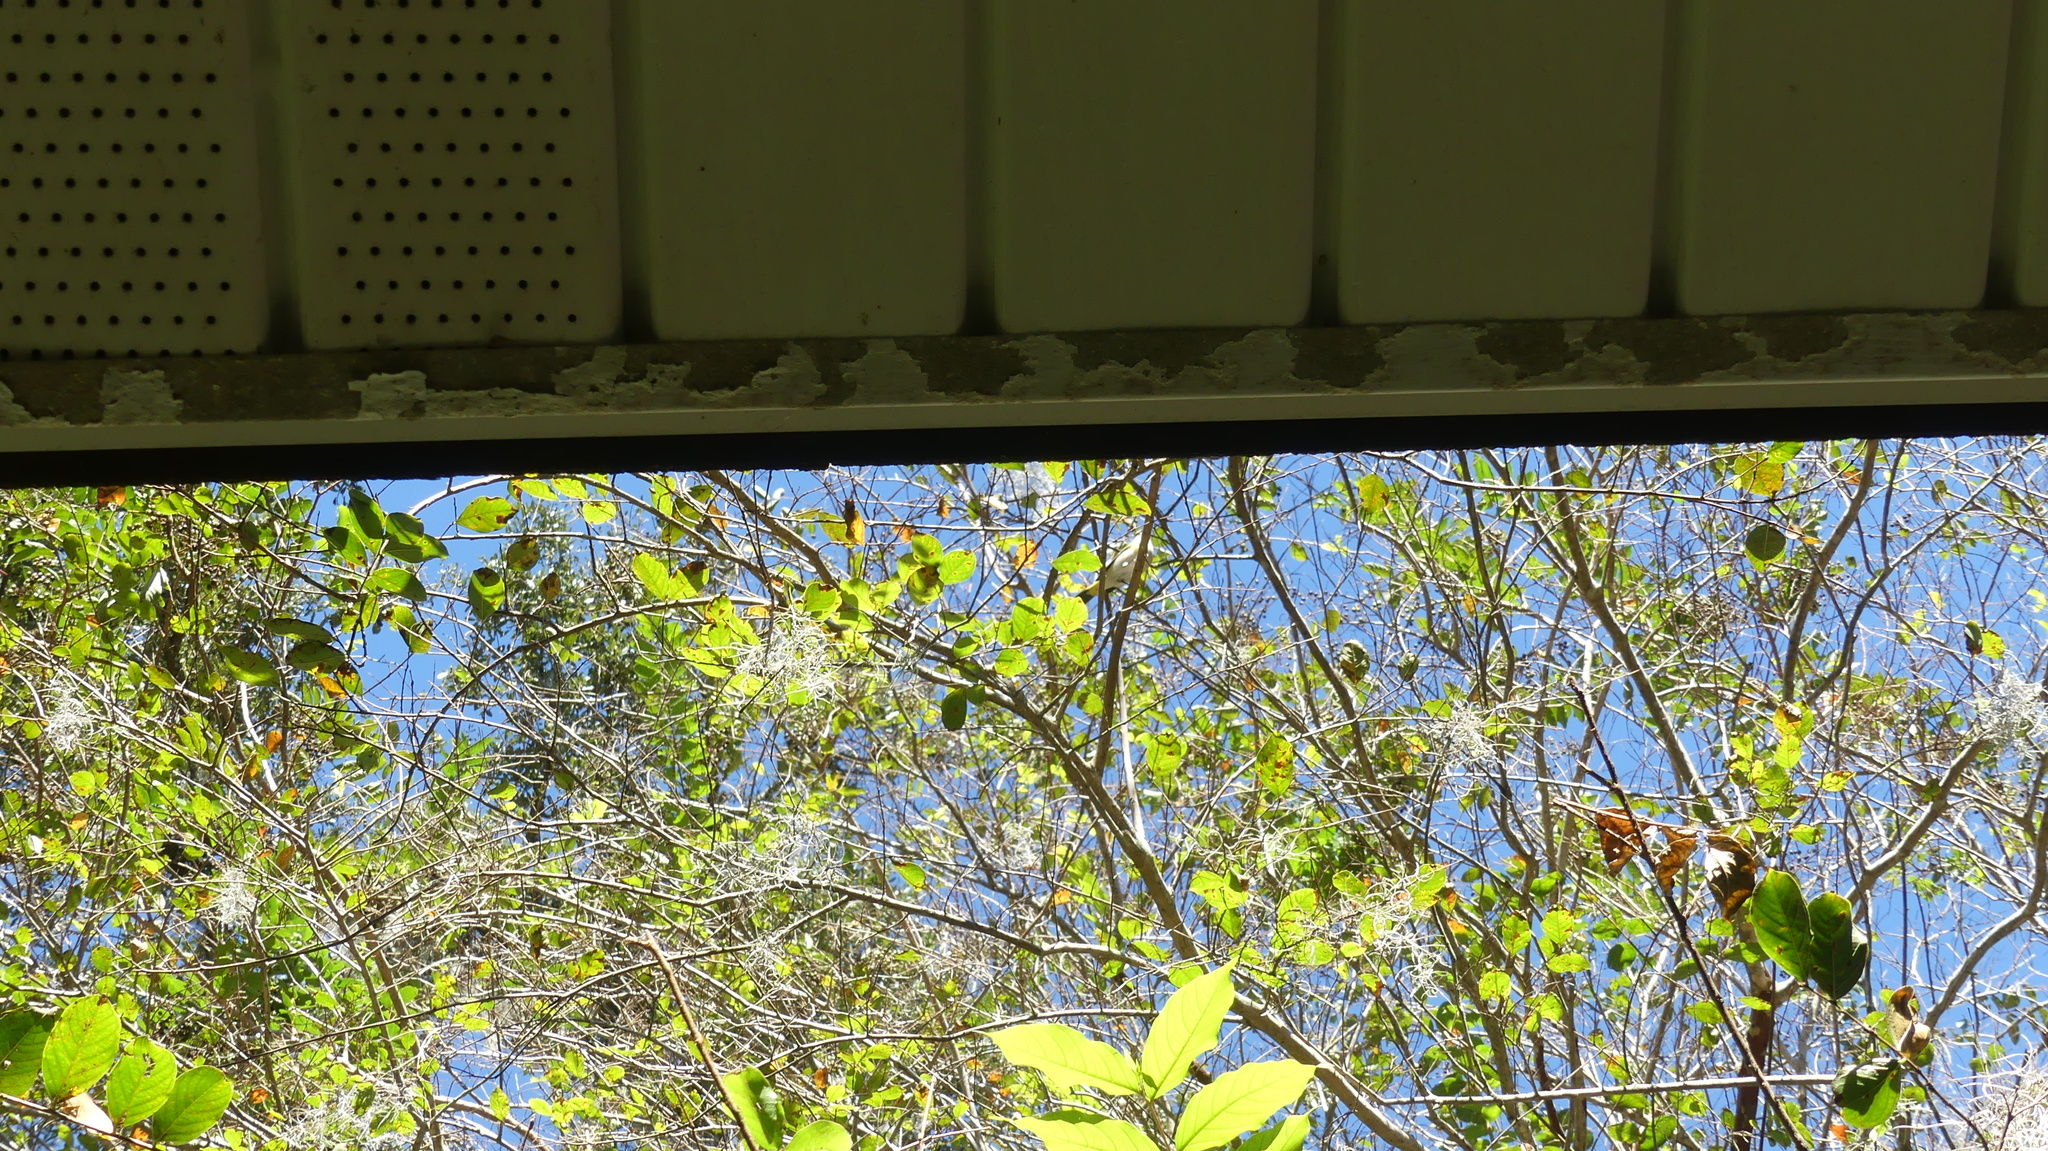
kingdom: Animalia
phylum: Chordata
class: Aves
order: Passeriformes
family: Parulidae
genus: Setophaga
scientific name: Setophaga ruticilla
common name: American redstart
